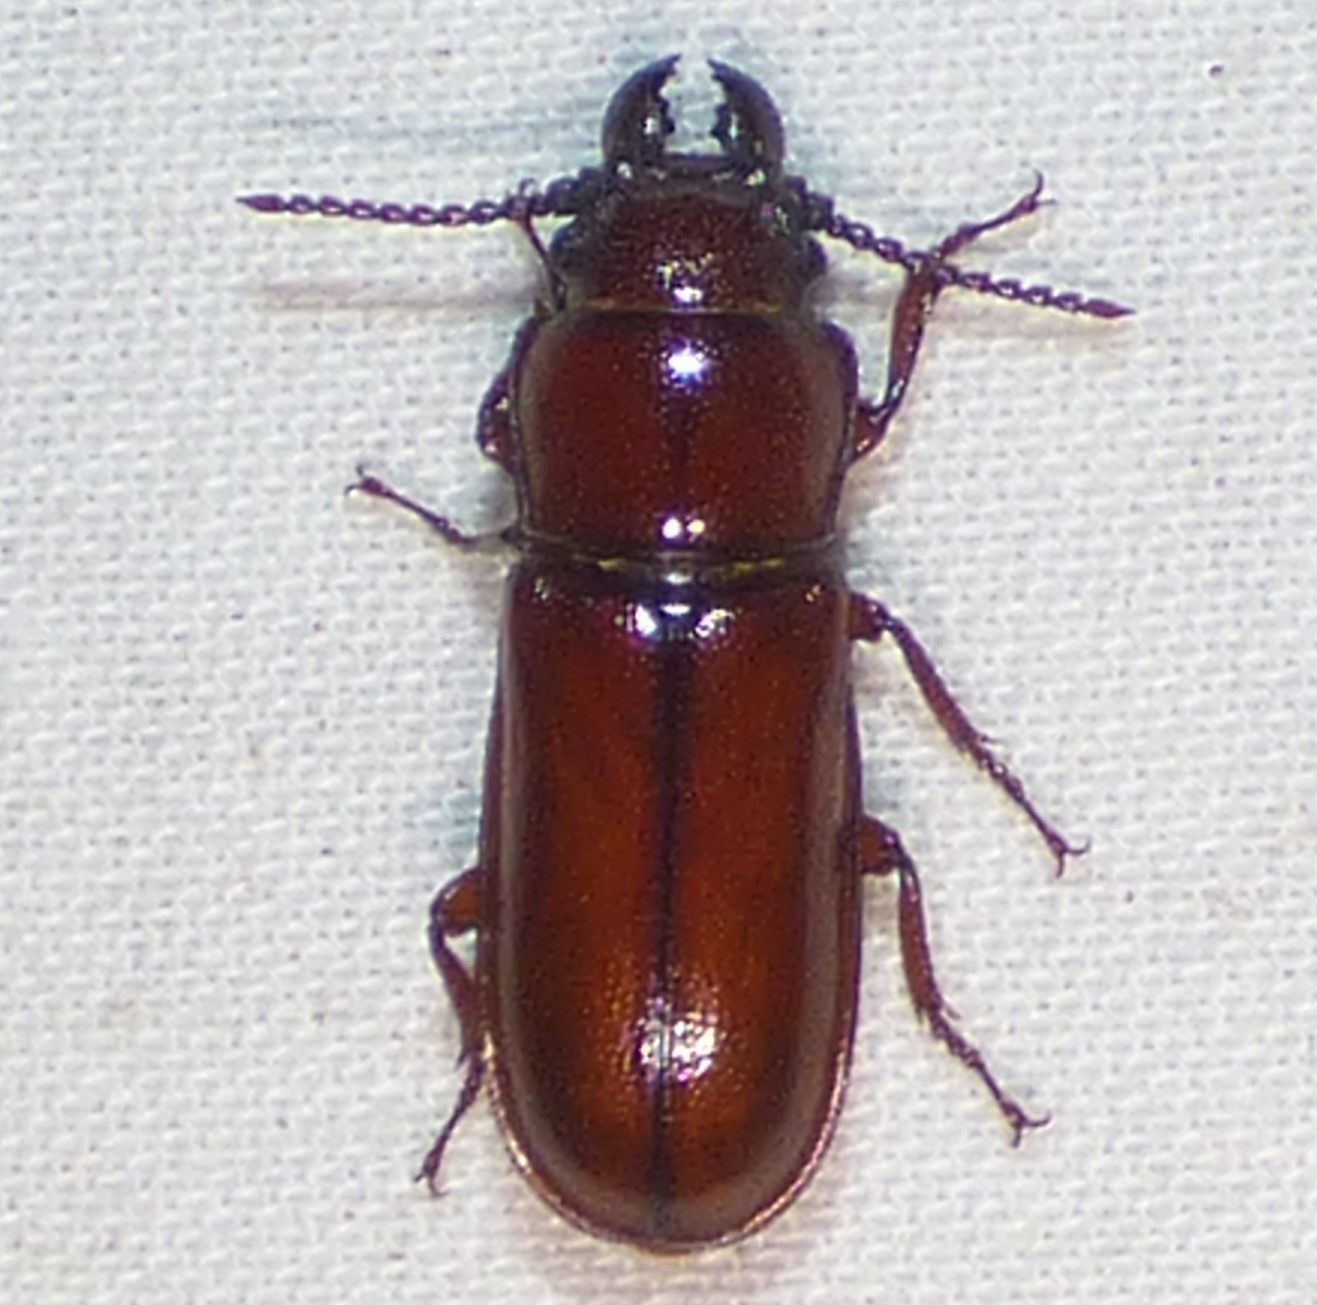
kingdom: Animalia
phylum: Arthropoda
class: Insecta
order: Coleoptera
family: Cerambycidae
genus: Neandra
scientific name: Neandra brunnea
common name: Pole borer
